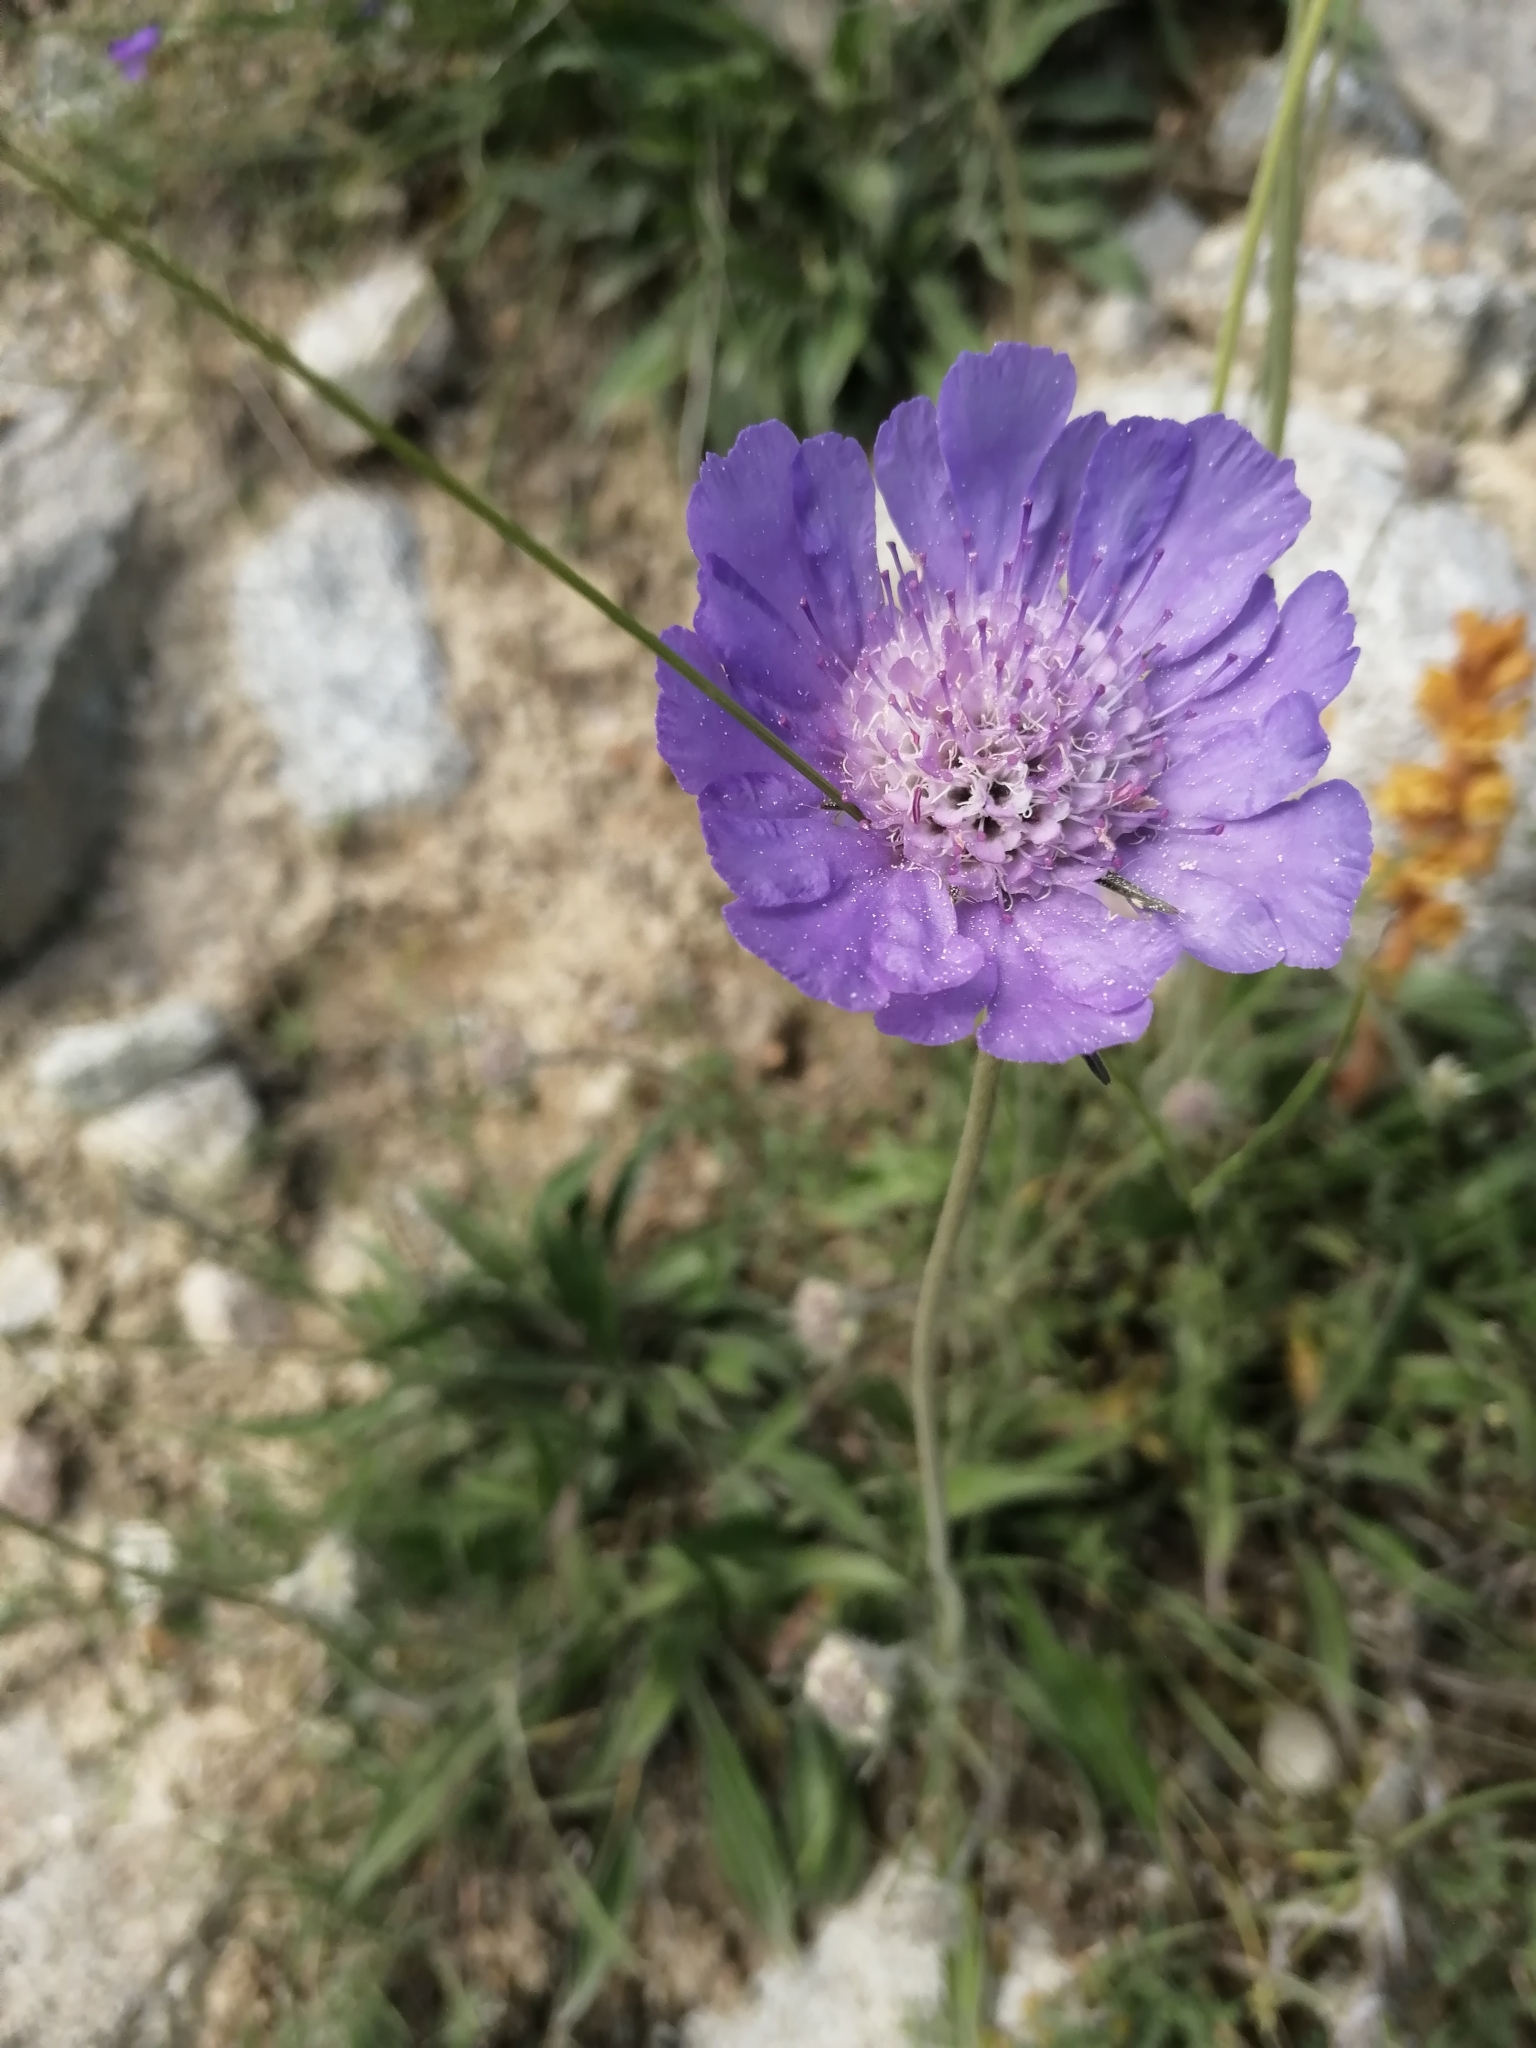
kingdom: Plantae
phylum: Tracheophyta
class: Magnoliopsida
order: Dipsacales
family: Caprifoliaceae
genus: Lomelosia
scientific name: Lomelosia caucasica
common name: Pincushion-flower
